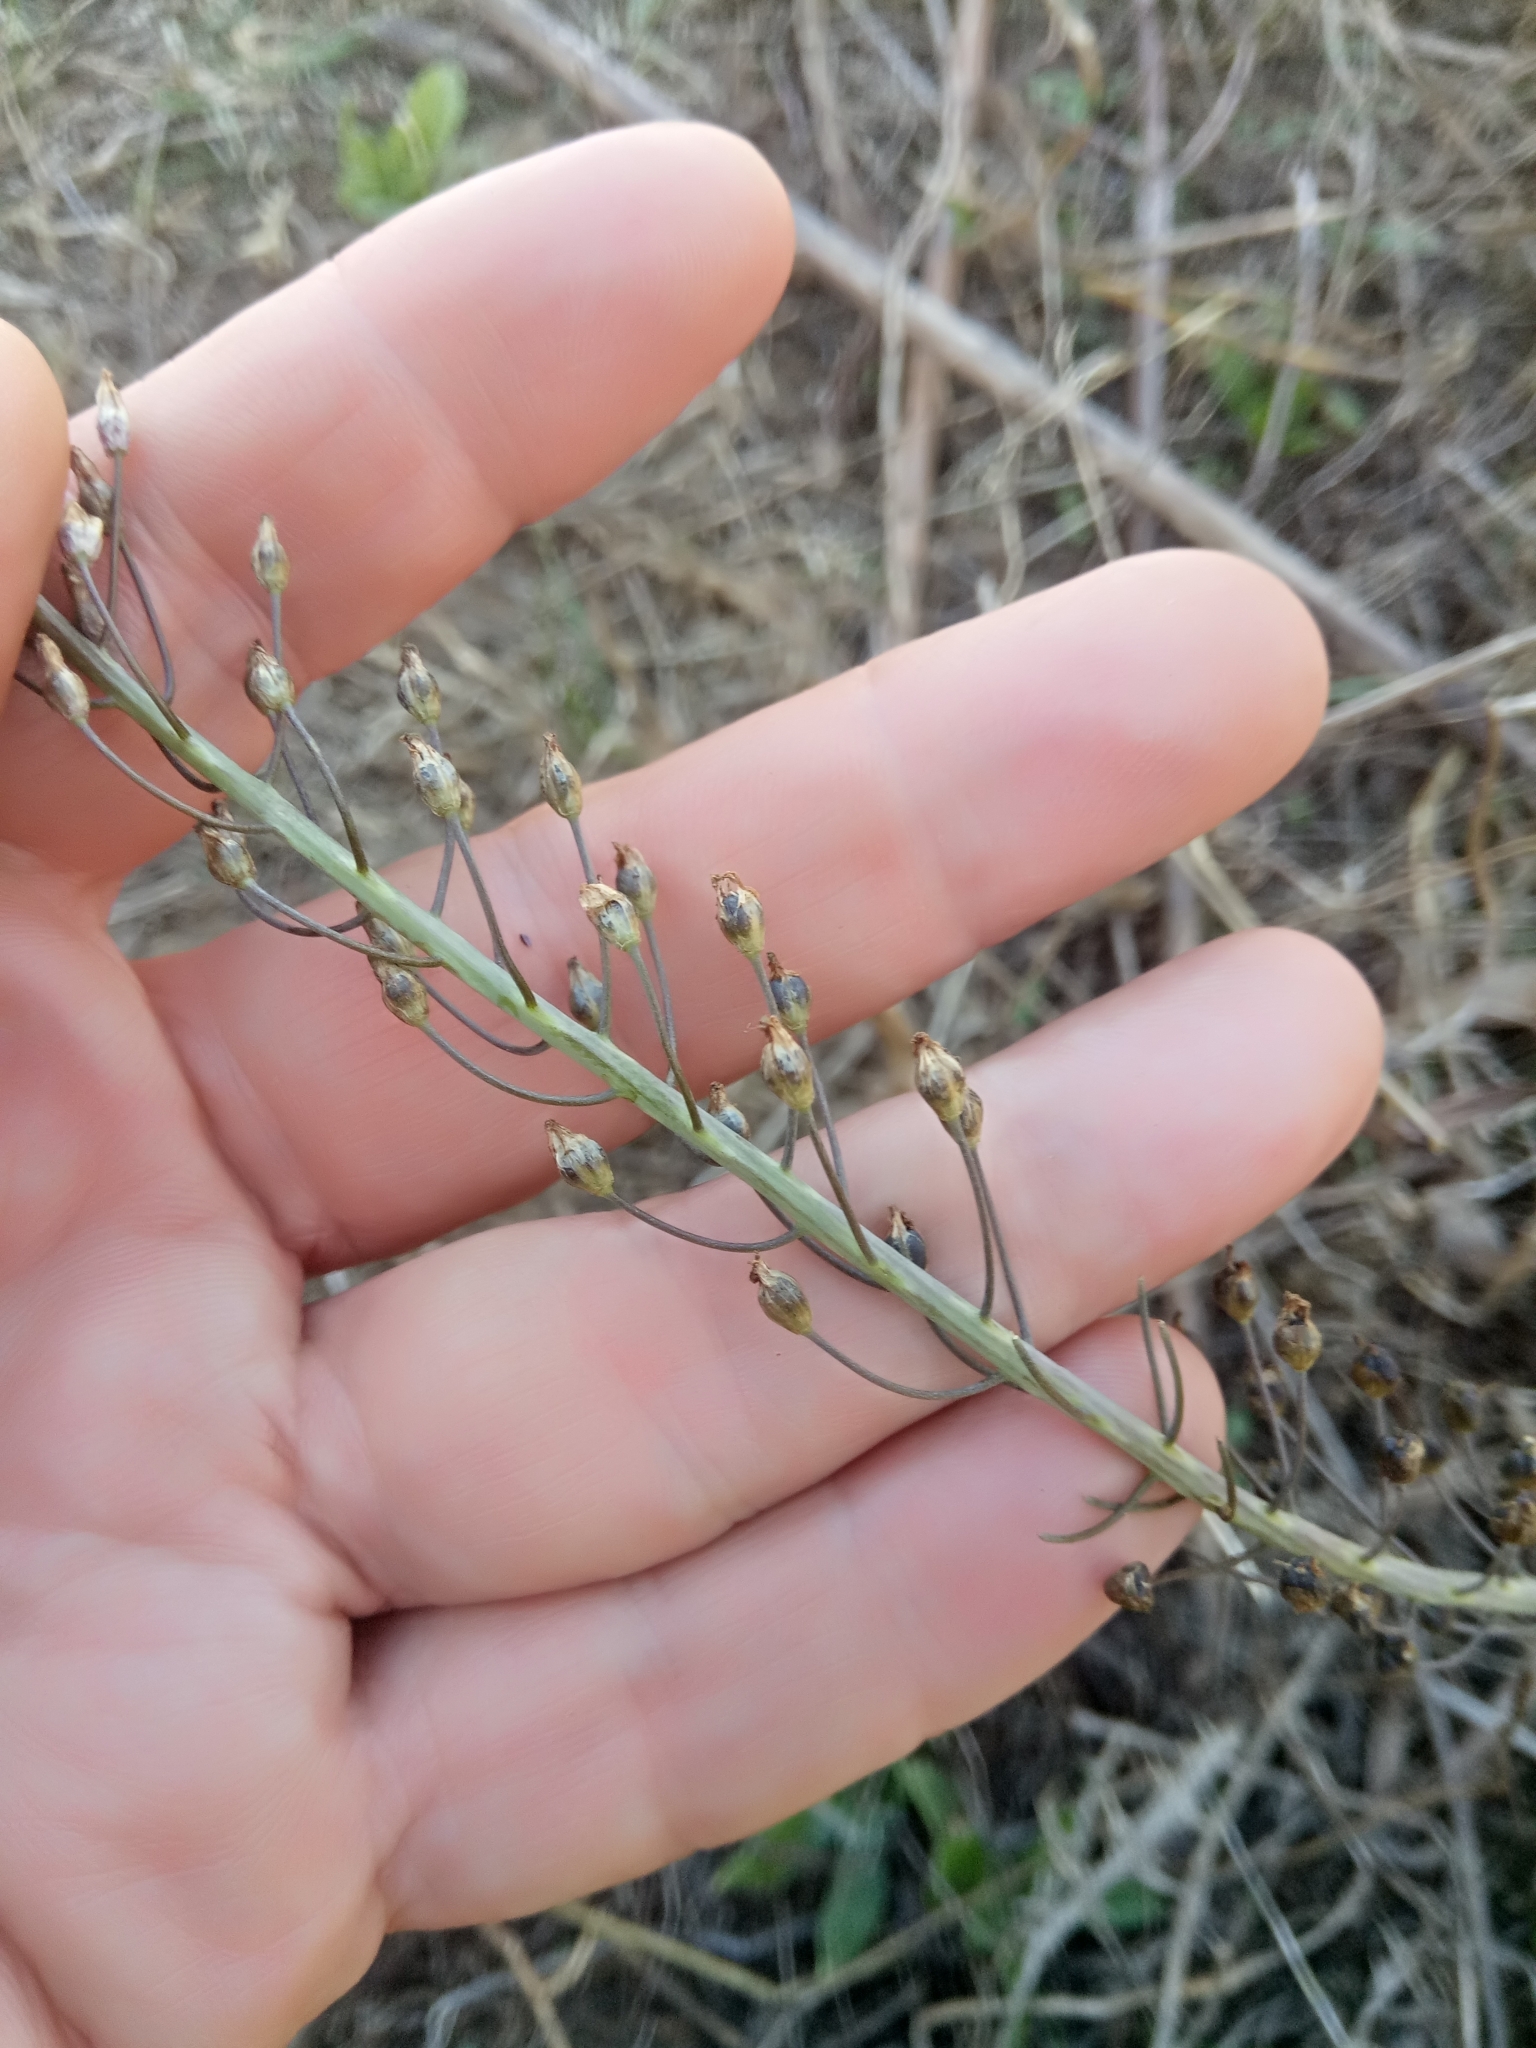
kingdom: Plantae
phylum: Tracheophyta
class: Liliopsida
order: Asparagales
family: Asparagaceae
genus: Prospero
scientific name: Prospero fallax
